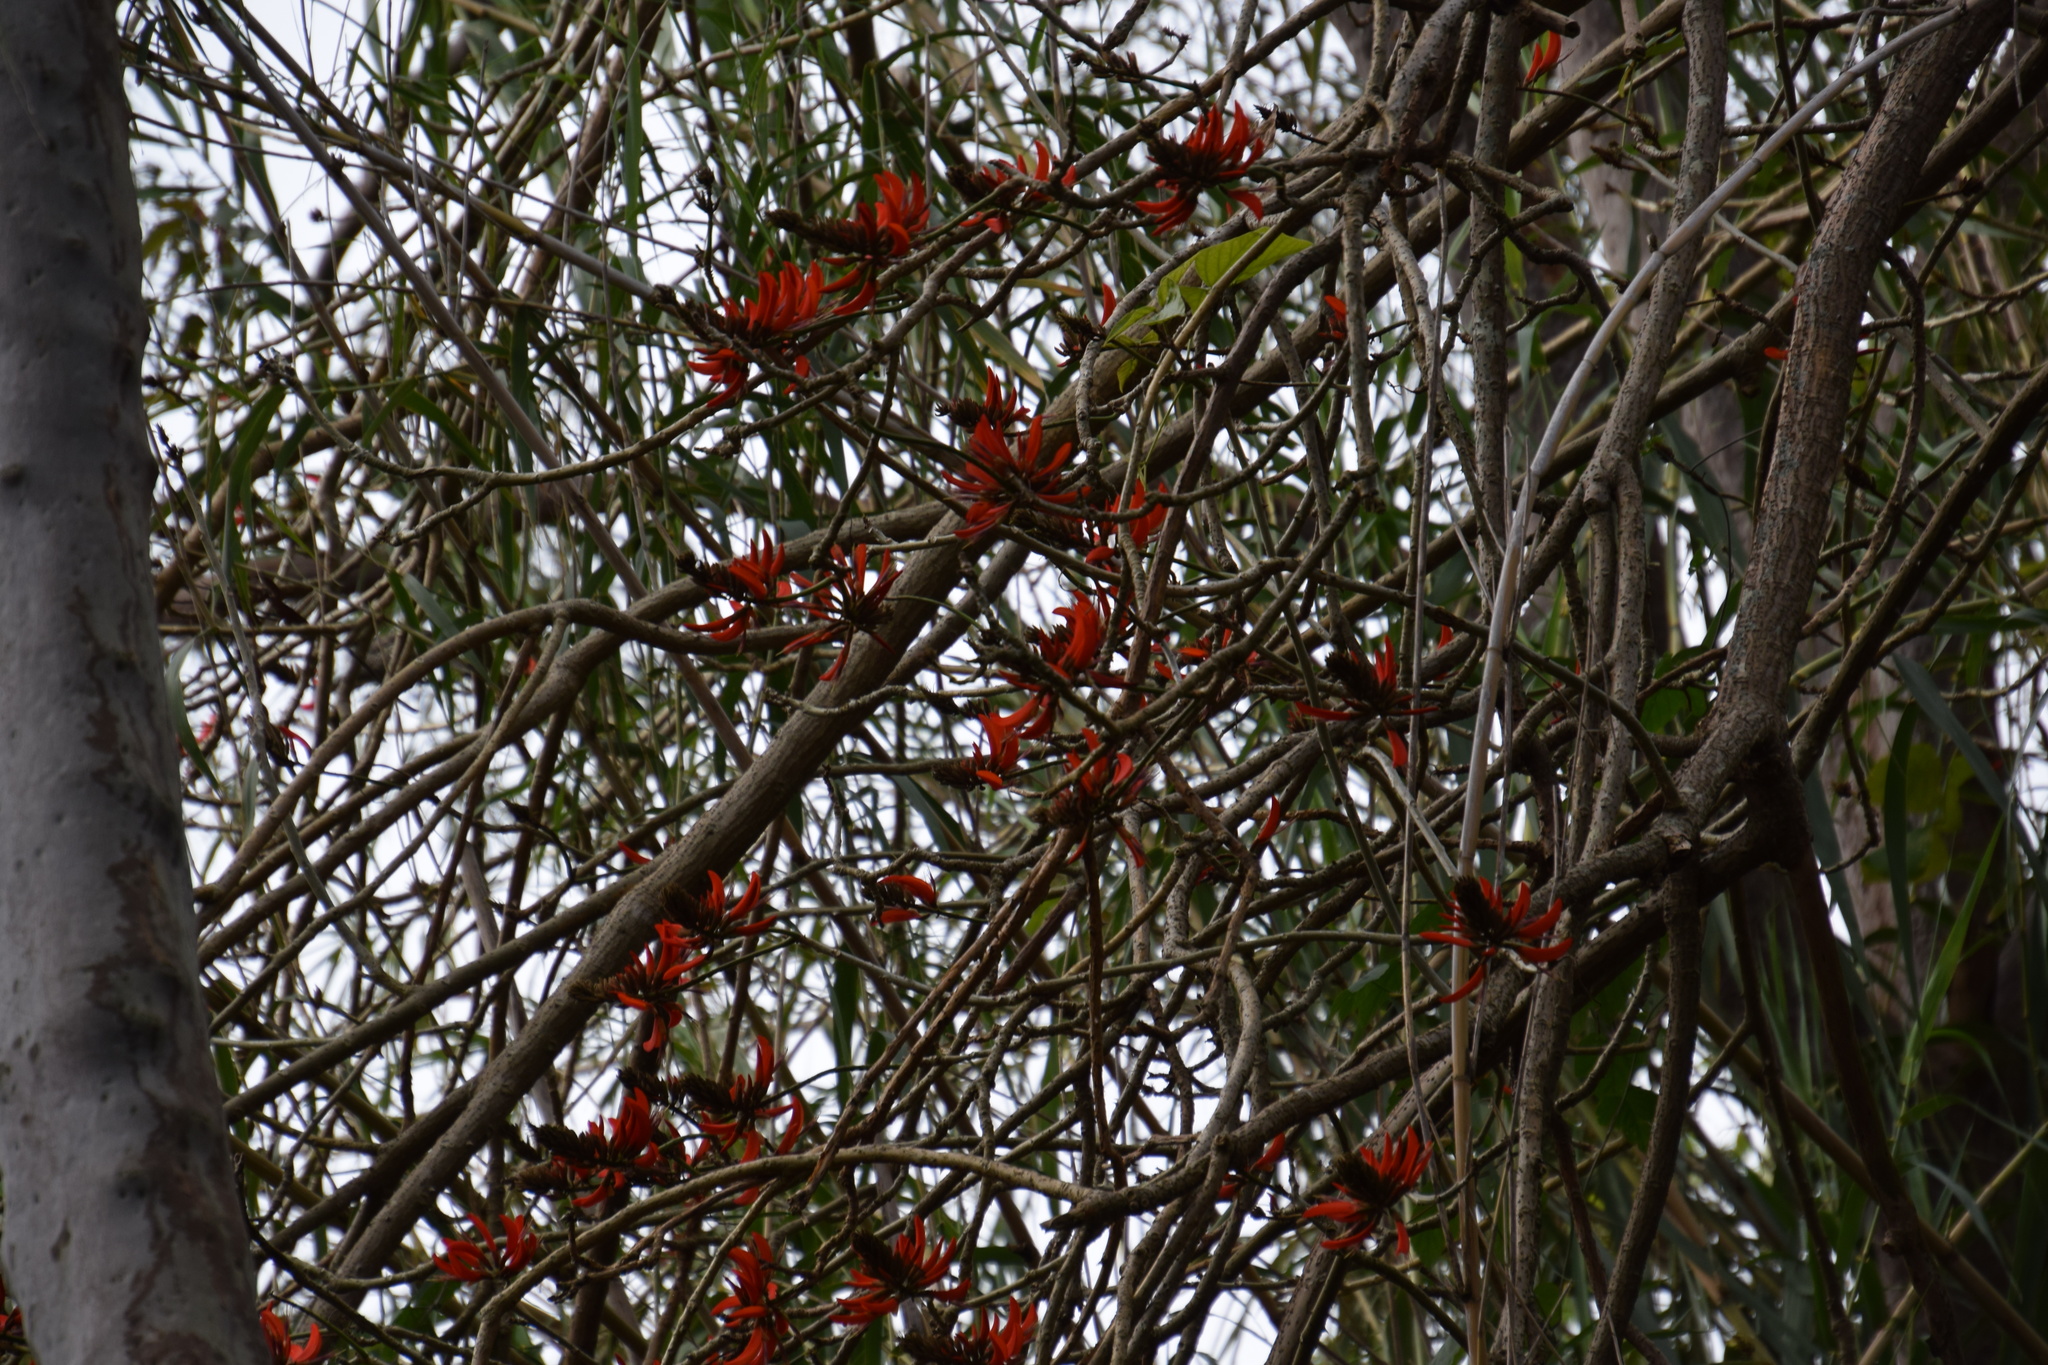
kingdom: Plantae
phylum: Tracheophyta
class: Magnoliopsida
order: Fabales
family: Fabaceae
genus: Erythrina
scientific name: Erythrina sykesii
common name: Coraltree
